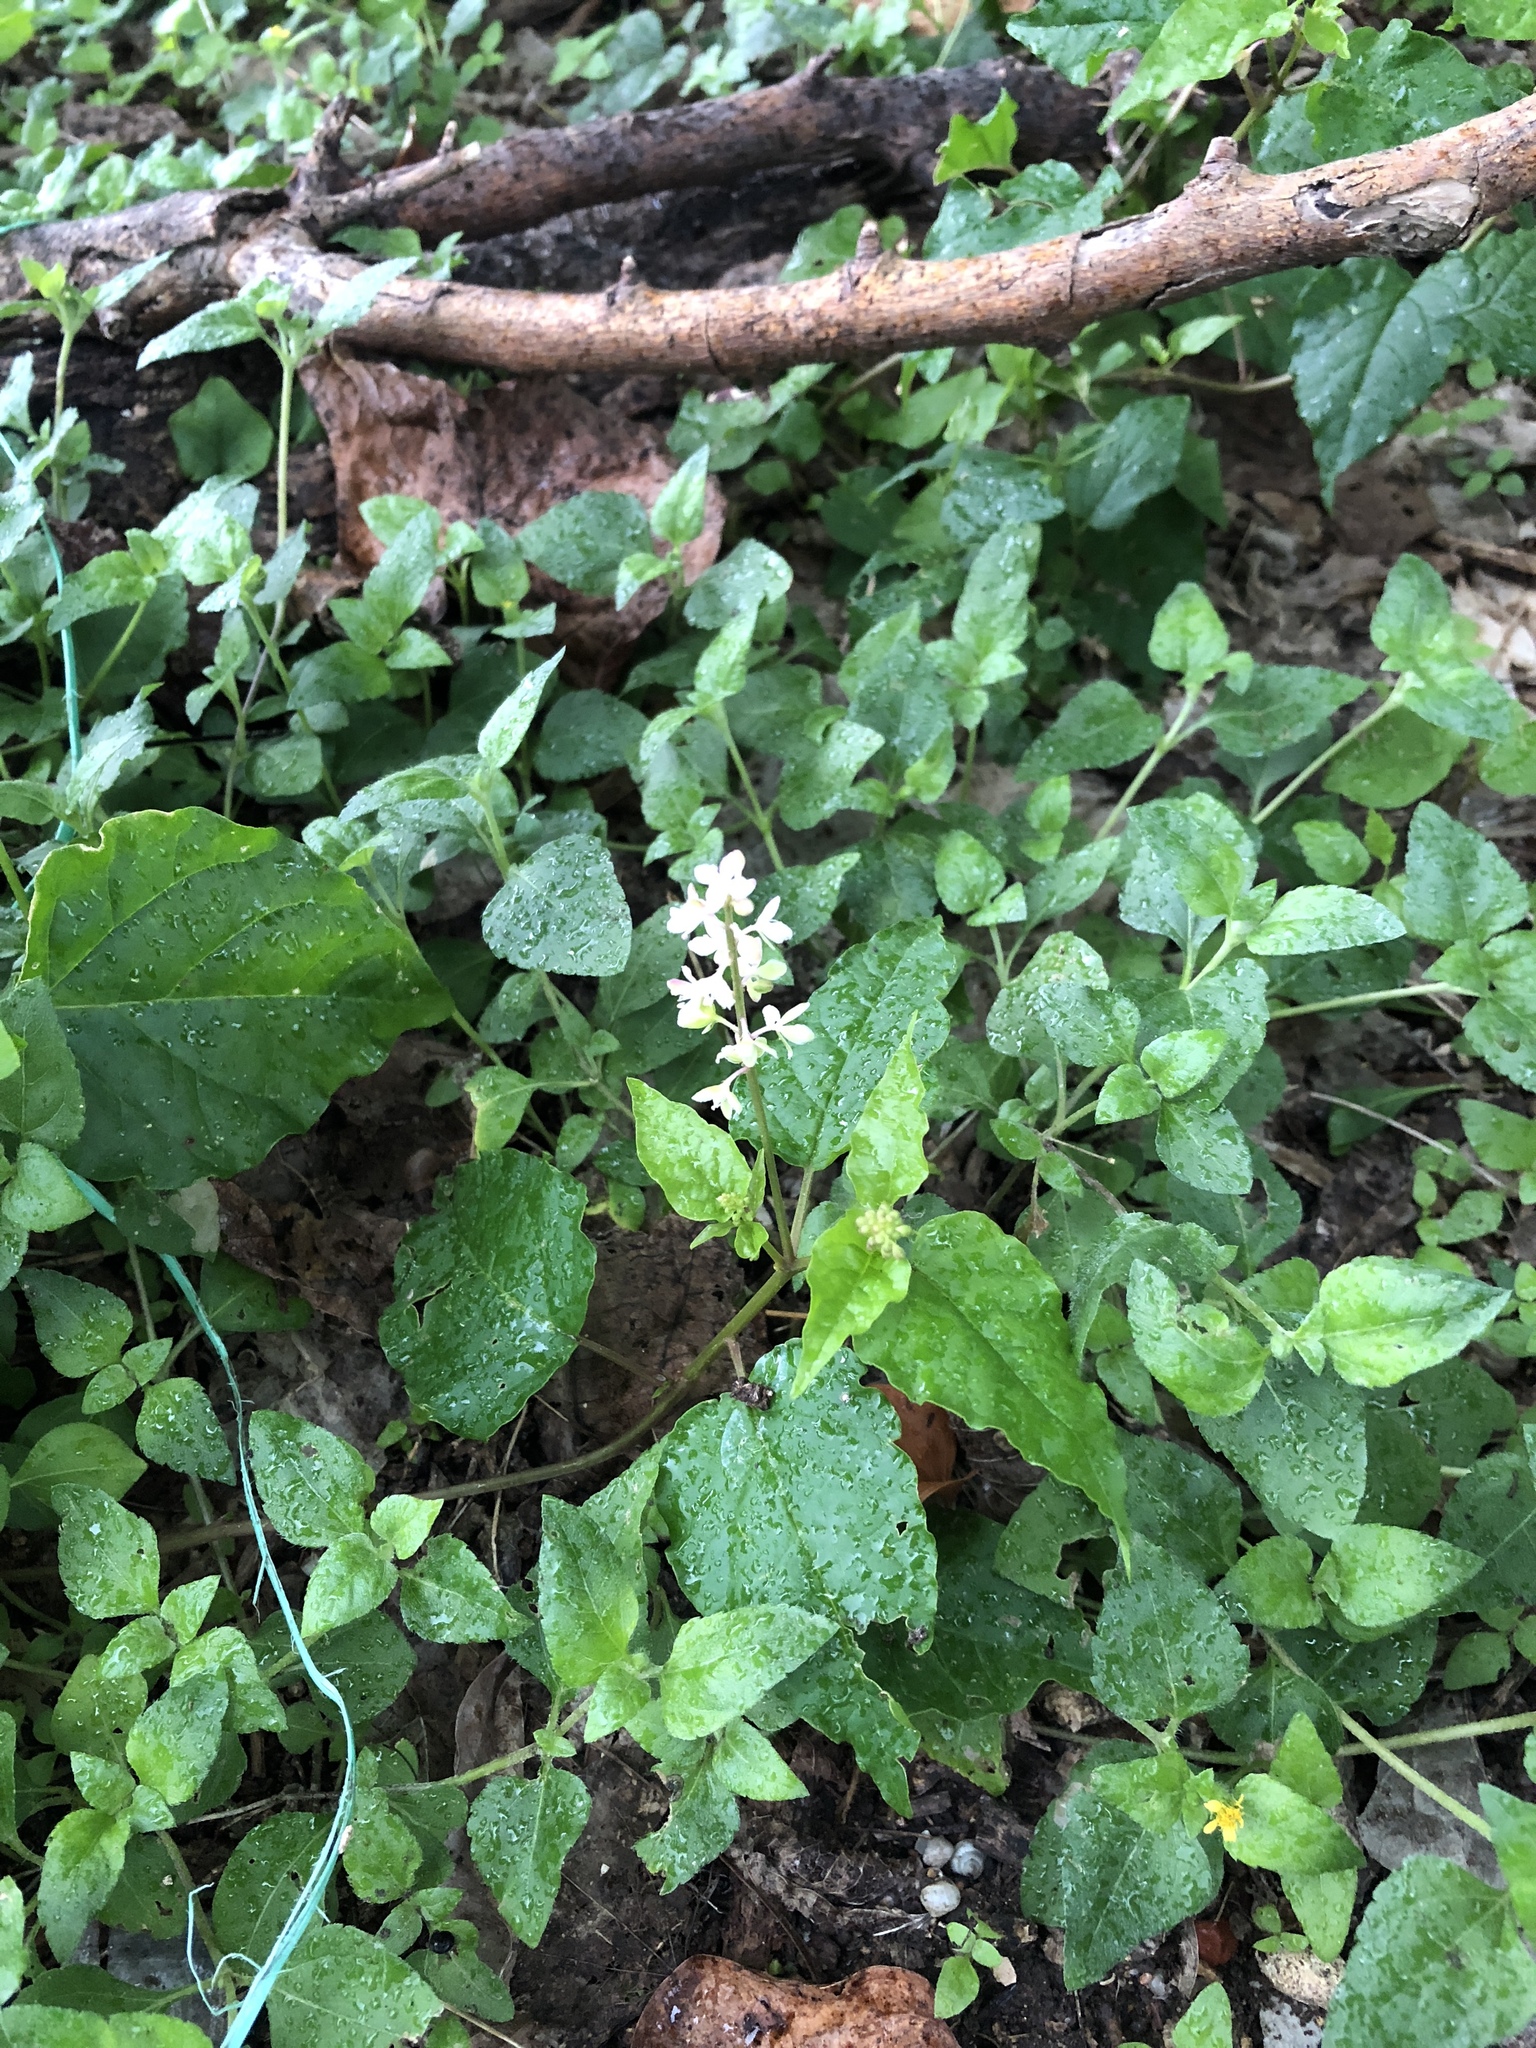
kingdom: Plantae
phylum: Tracheophyta
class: Magnoliopsida
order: Caryophyllales
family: Phytolaccaceae
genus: Rivina
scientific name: Rivina humilis
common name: Rougeplant
